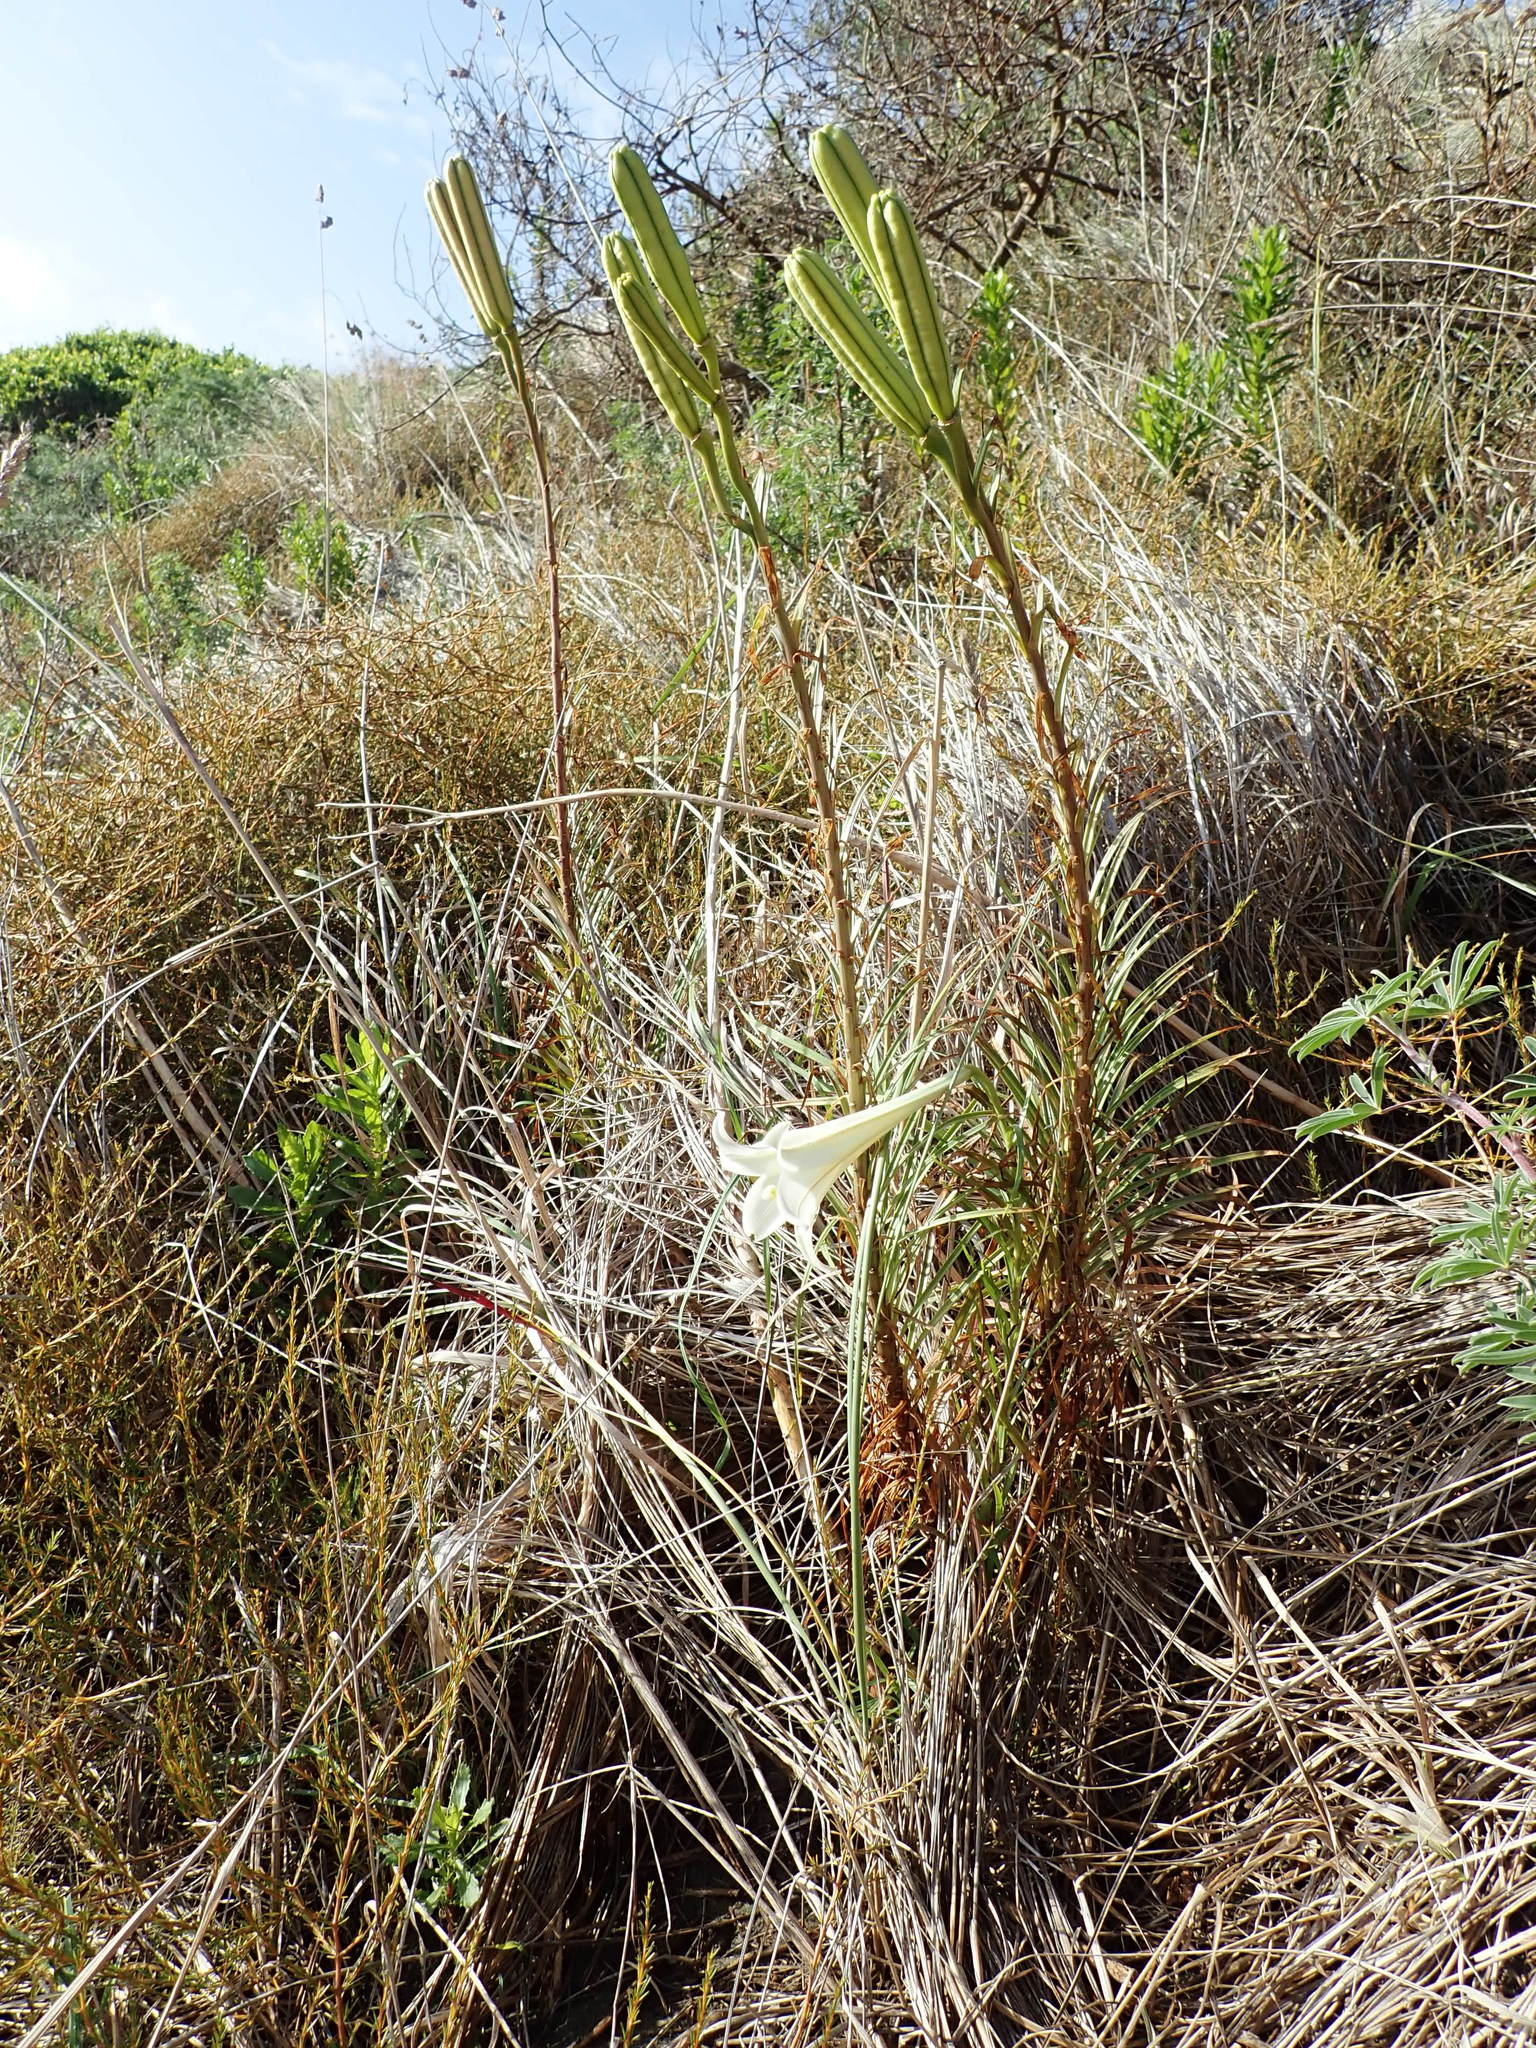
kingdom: Plantae
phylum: Tracheophyta
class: Liliopsida
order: Liliales
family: Liliaceae
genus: Lilium
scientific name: Lilium formosanum
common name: Formosa lily
